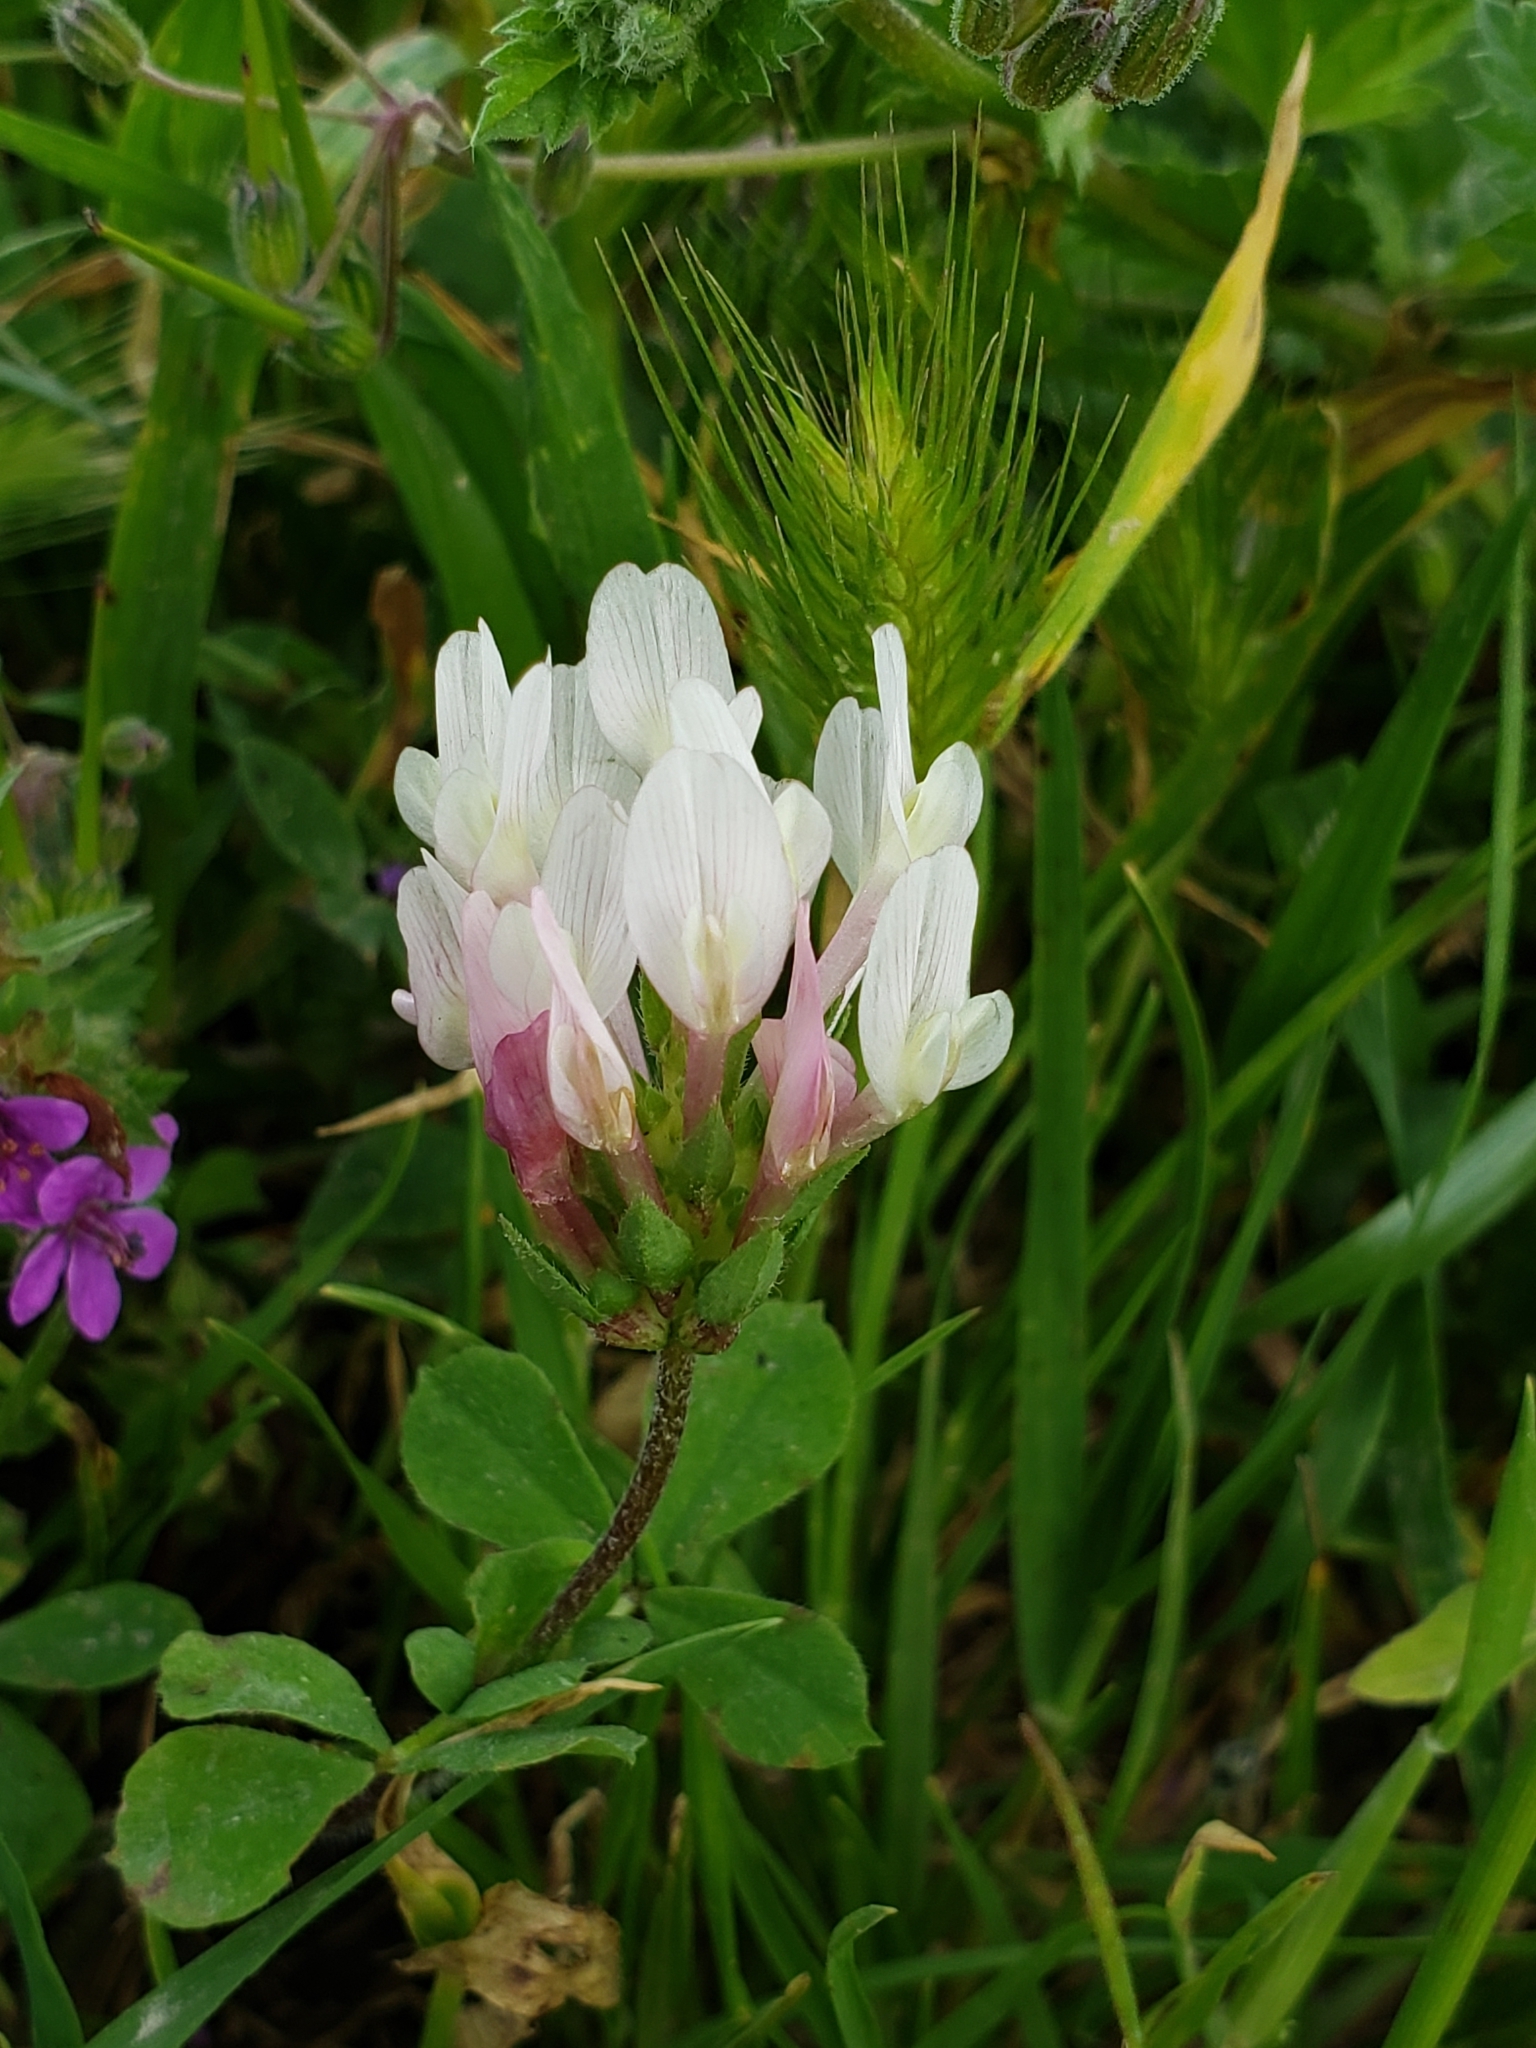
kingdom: Plantae
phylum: Tracheophyta
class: Magnoliopsida
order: Fabales
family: Fabaceae
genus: Trifolium
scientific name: Trifolium clypeatum
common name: Shield clover
